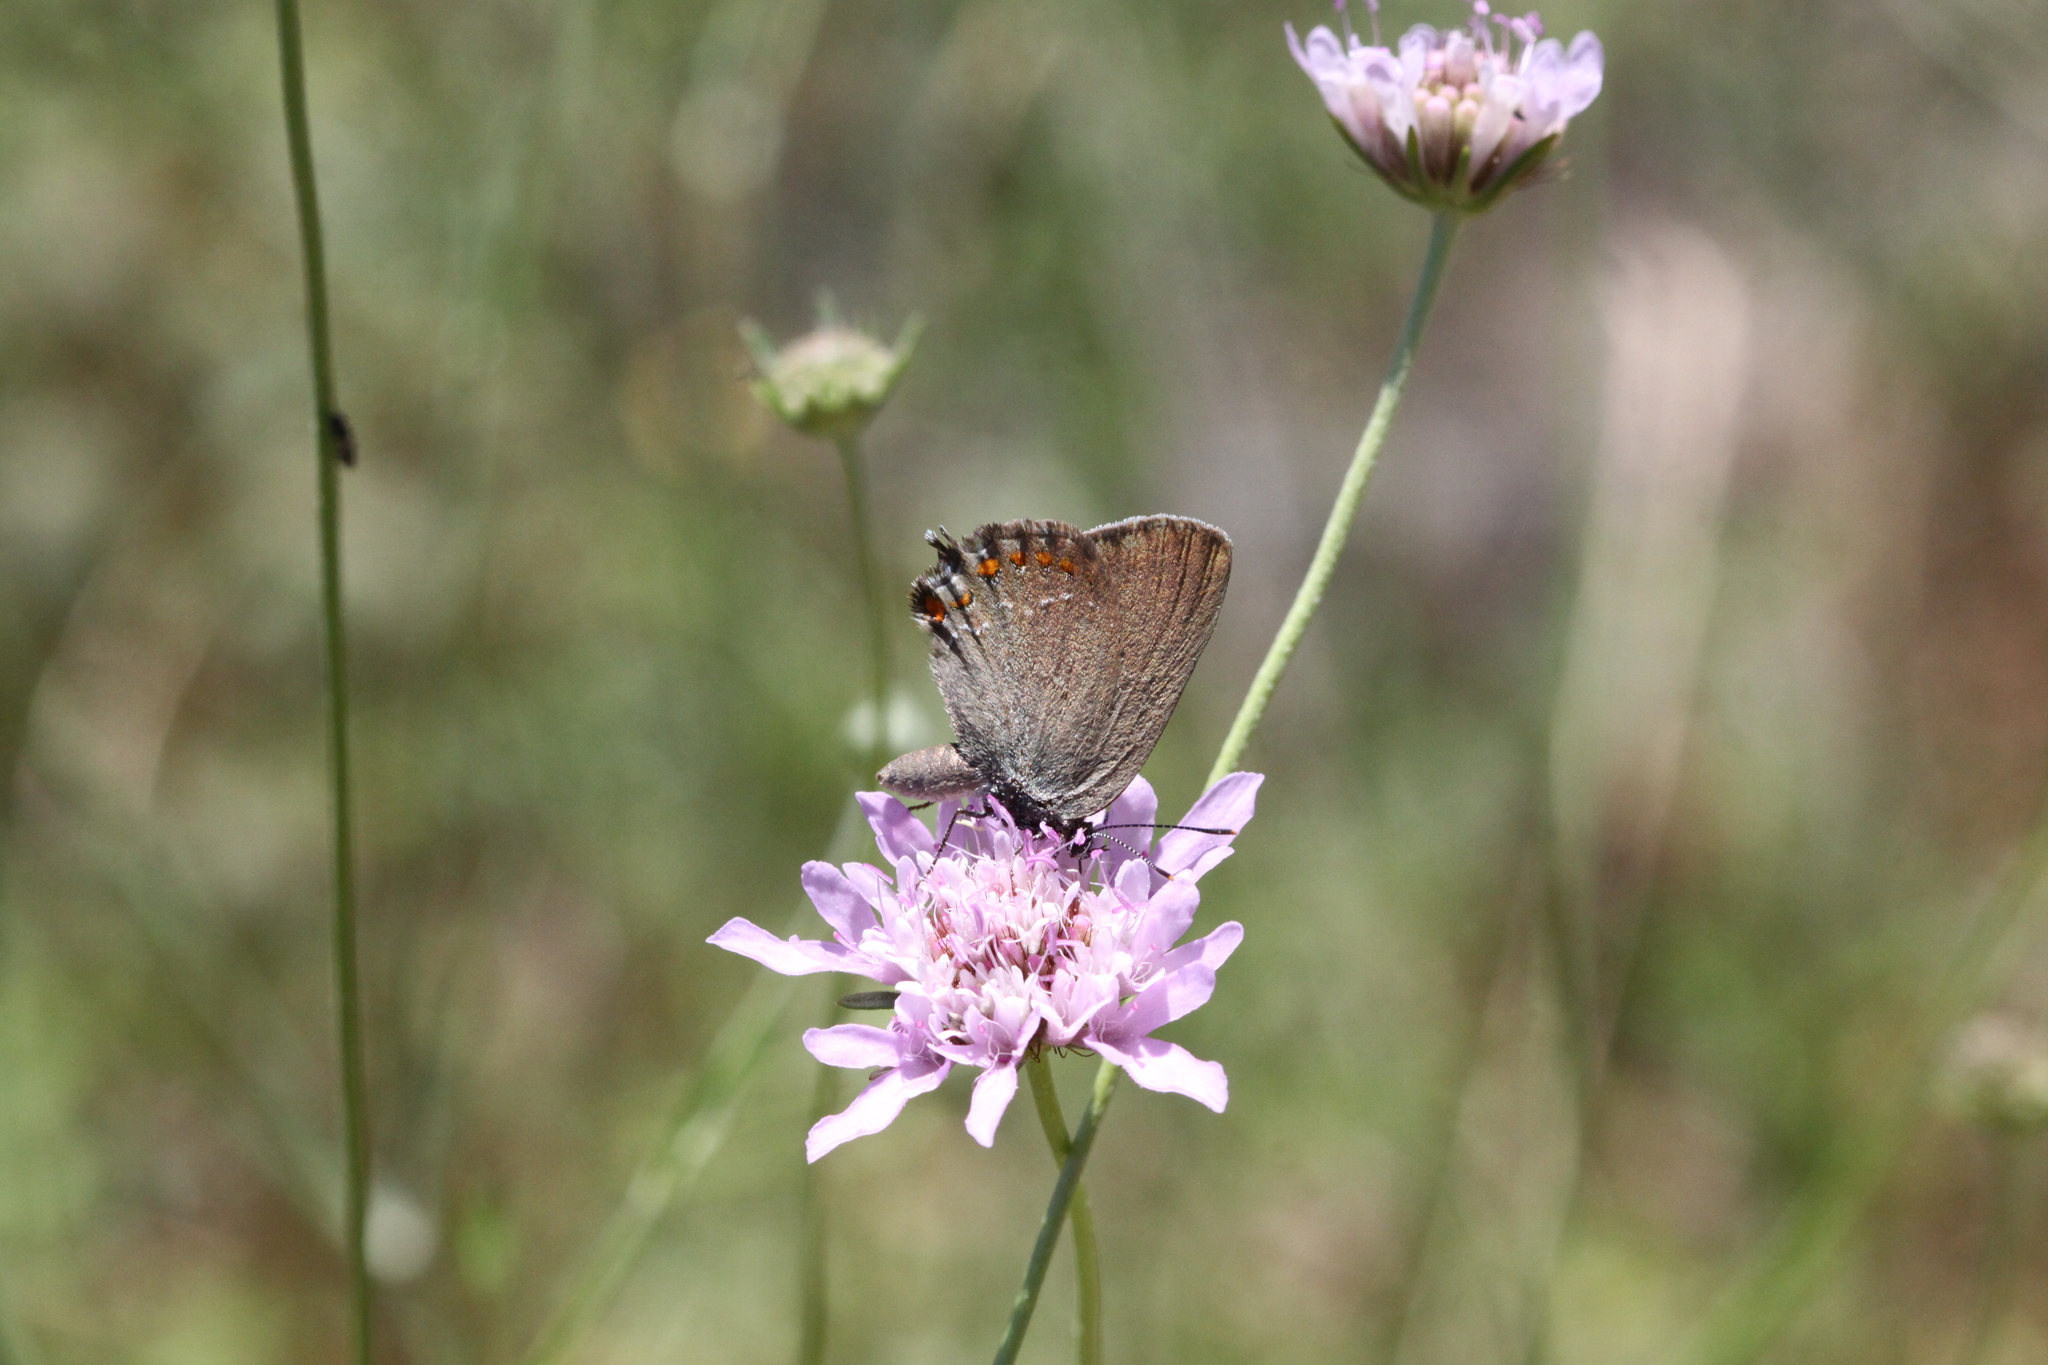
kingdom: Animalia
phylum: Arthropoda
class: Insecta
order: Lepidoptera
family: Lycaenidae
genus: Fixsenia
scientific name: Fixsenia esculi
